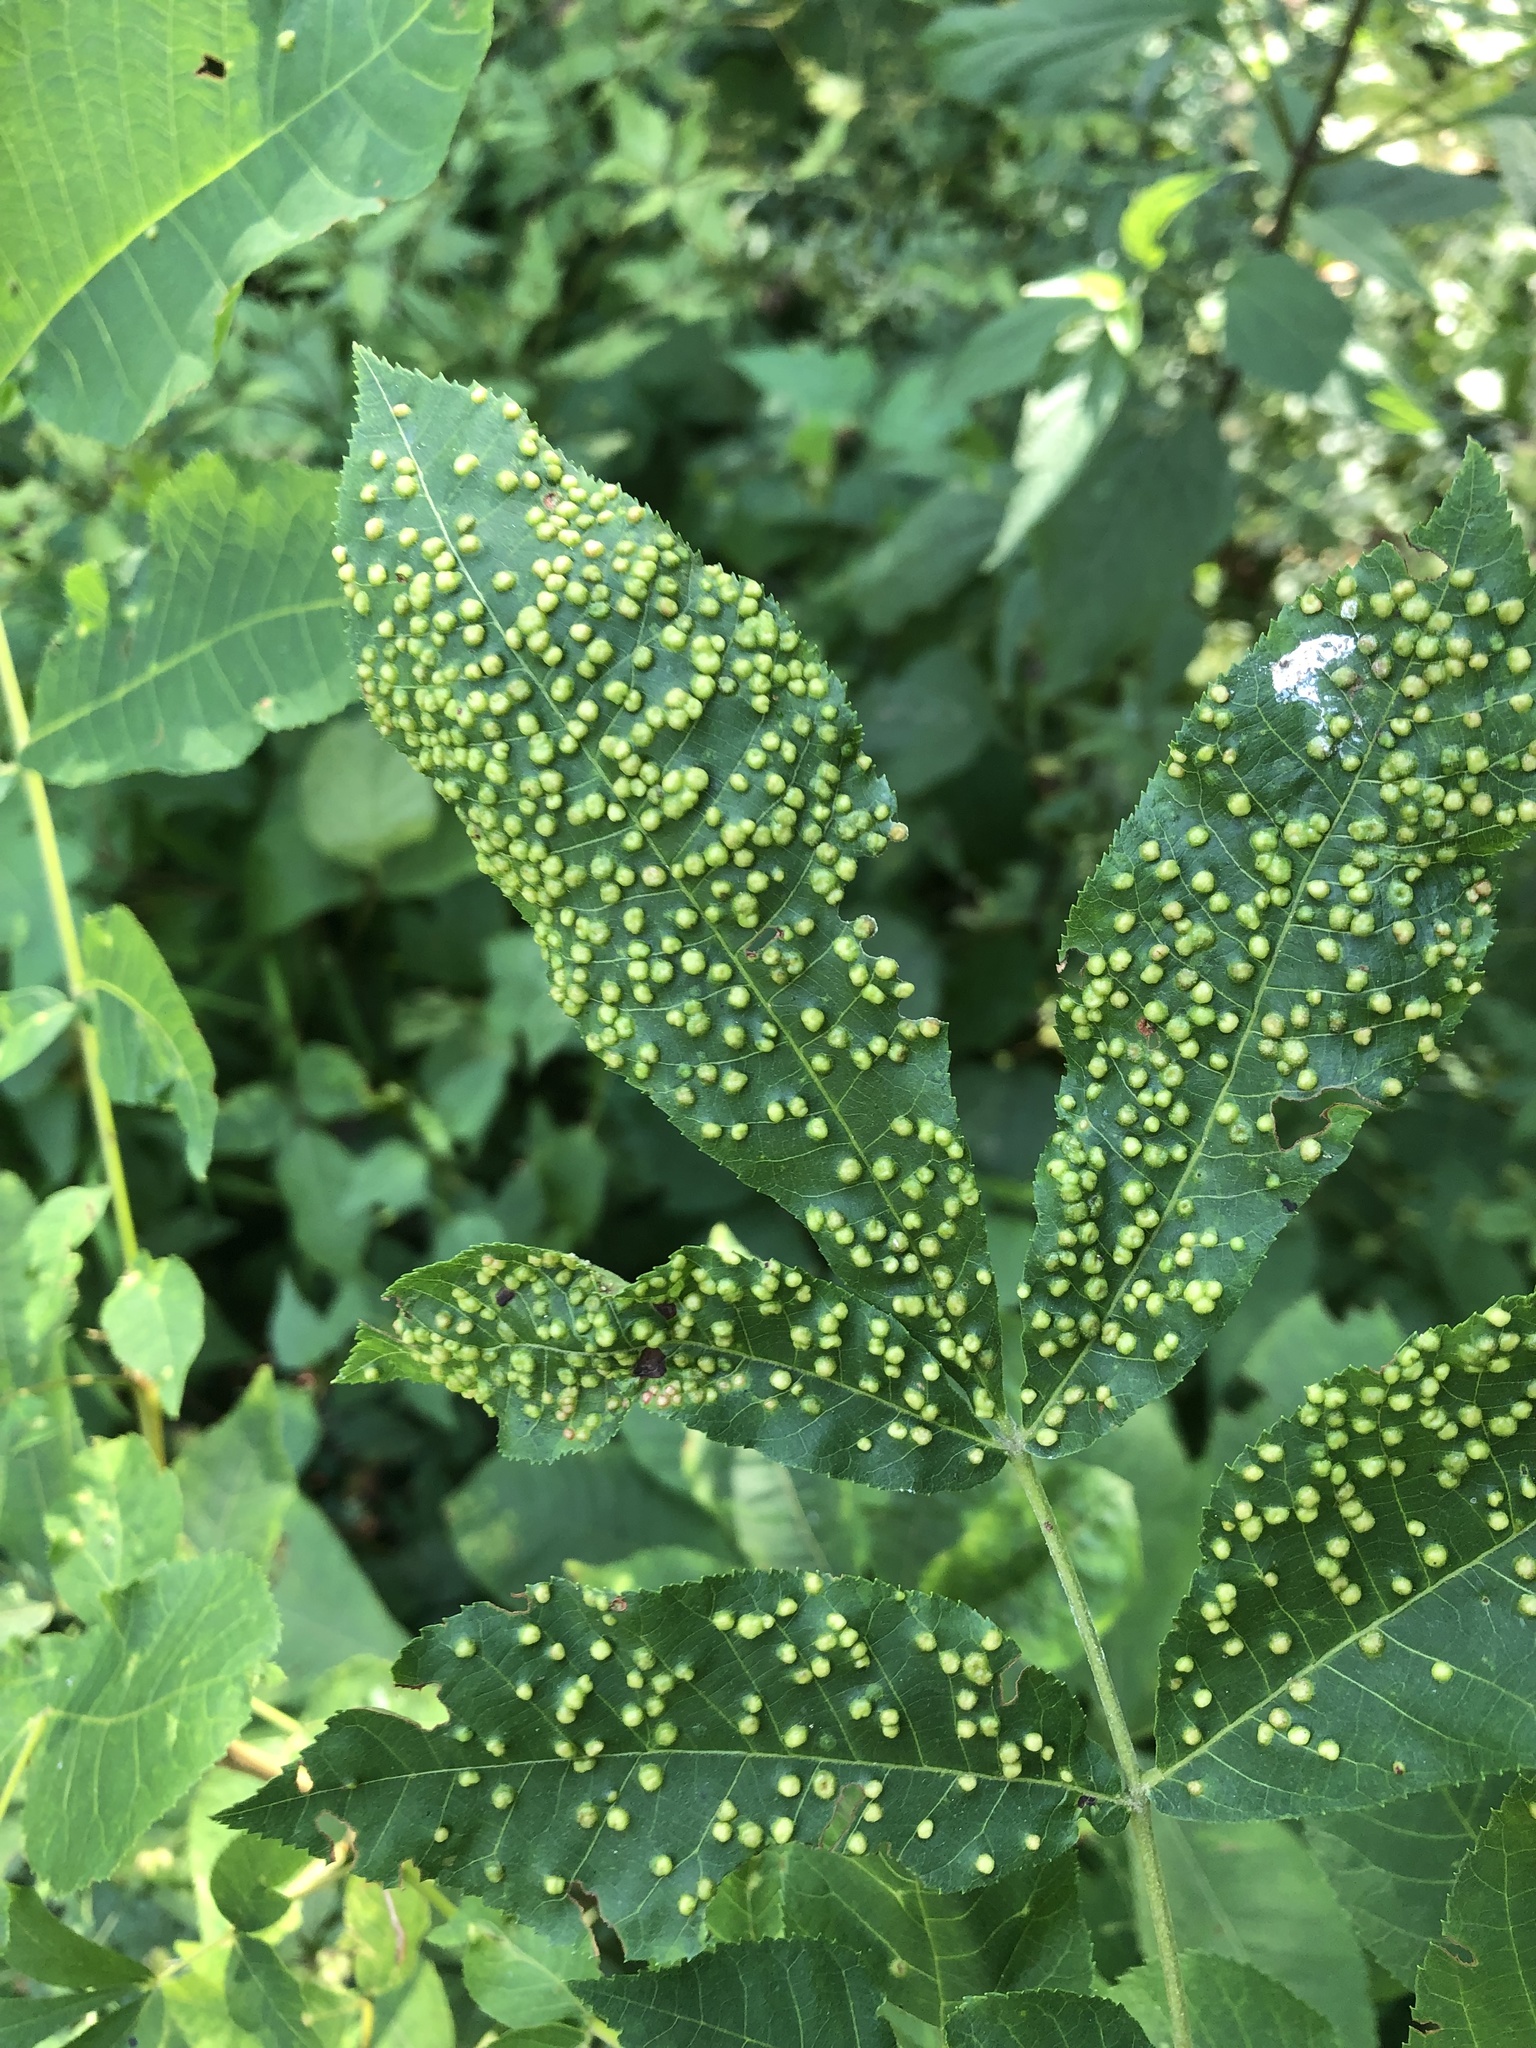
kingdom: Animalia
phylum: Arthropoda
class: Insecta
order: Hemiptera
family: Phylloxeridae
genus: Phylloxera
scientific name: Phylloxera caryae-semen
